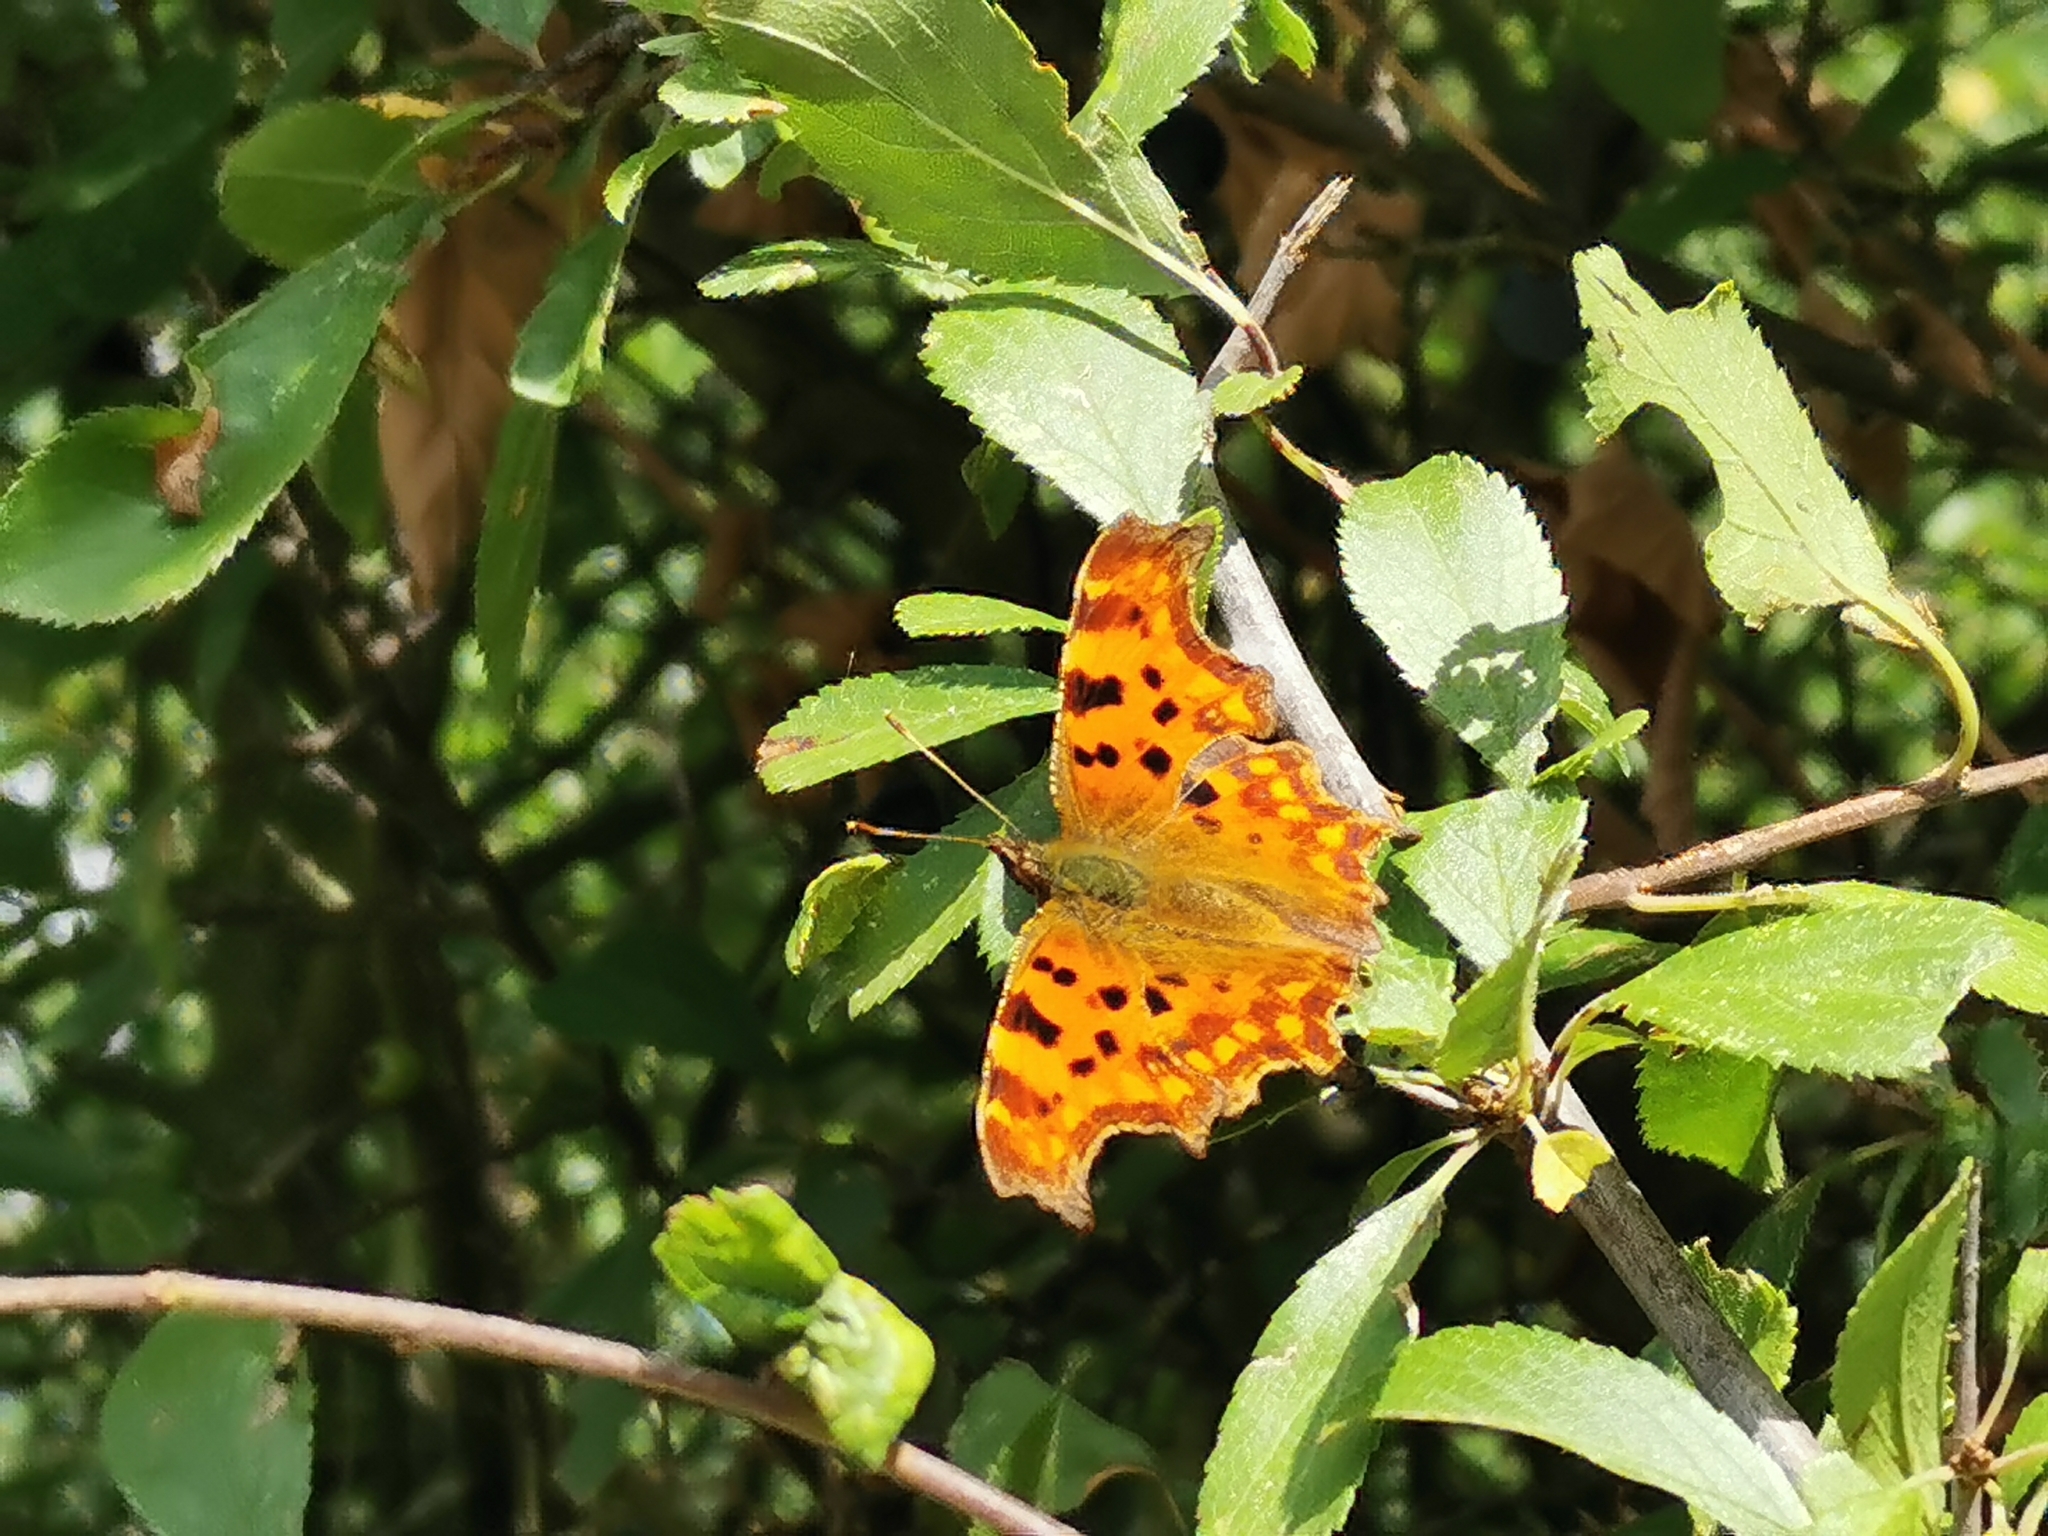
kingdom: Animalia
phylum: Arthropoda
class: Insecta
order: Lepidoptera
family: Nymphalidae
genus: Polygonia
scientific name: Polygonia c-album
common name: Comma
